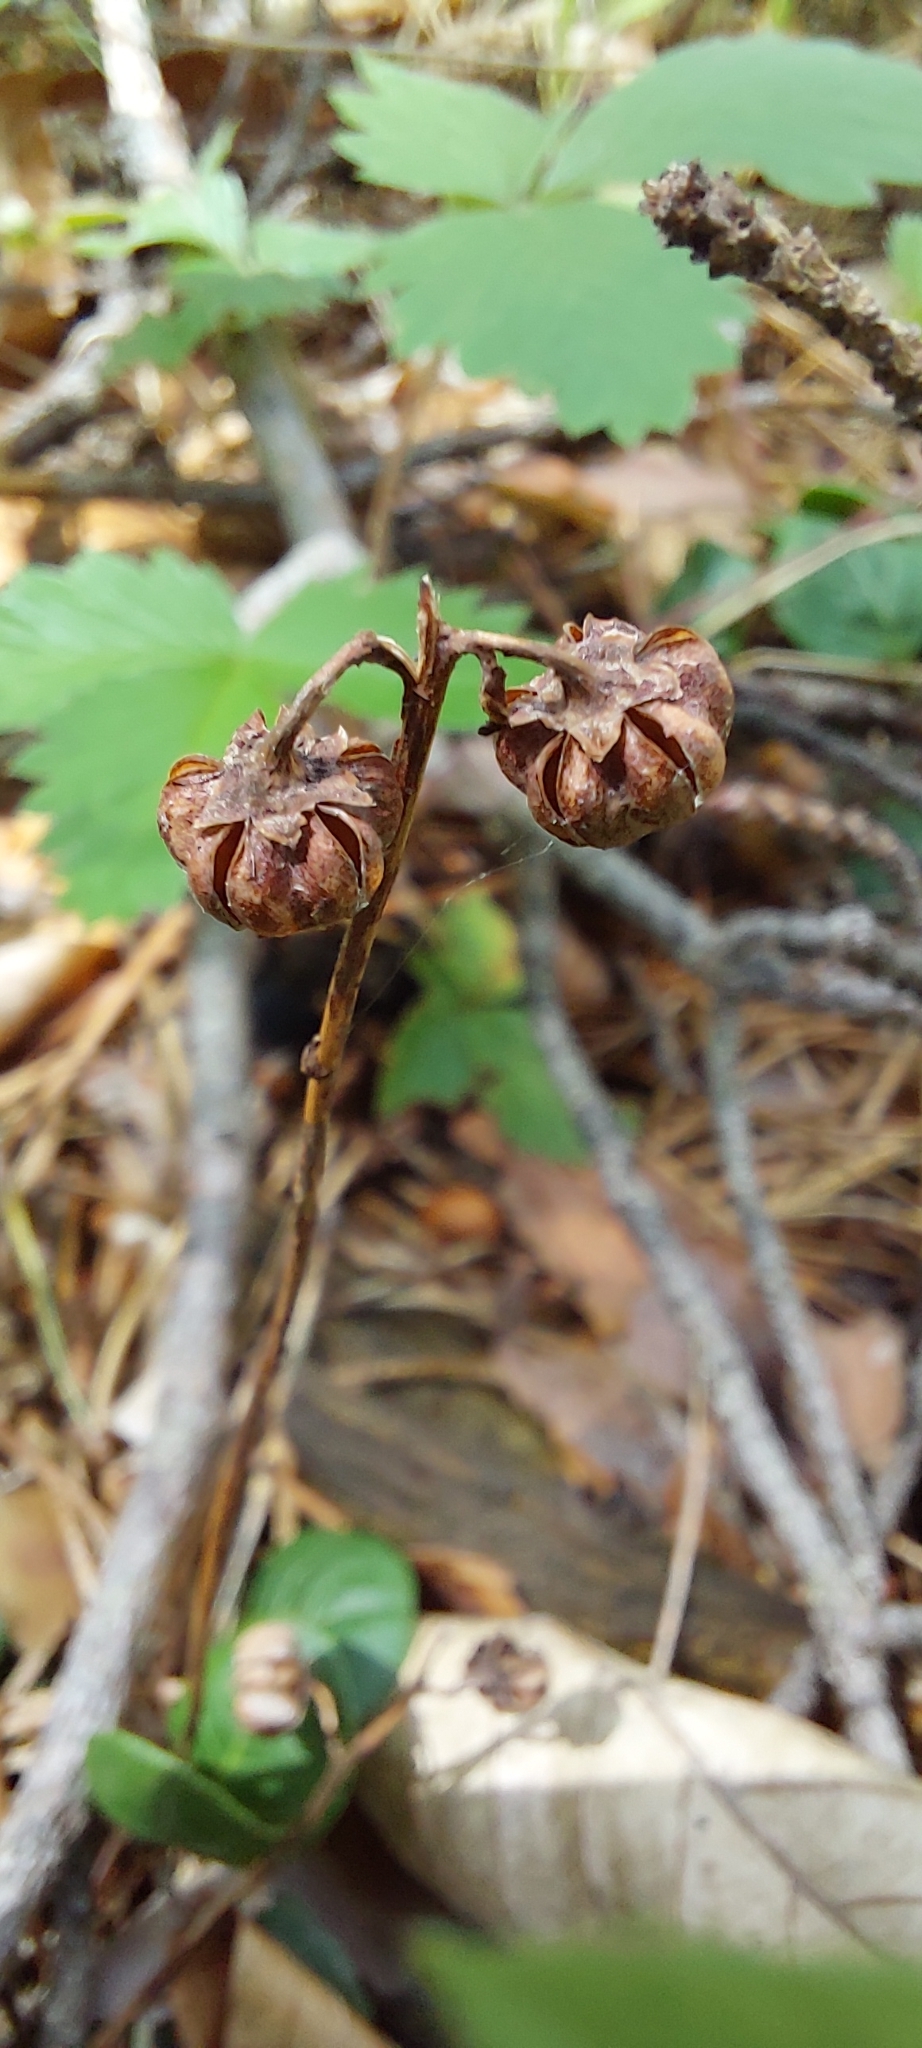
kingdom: Plantae
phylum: Tracheophyta
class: Magnoliopsida
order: Ericales
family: Ericaceae
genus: Pyrola
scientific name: Pyrola chlorantha
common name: Green wintergreen
